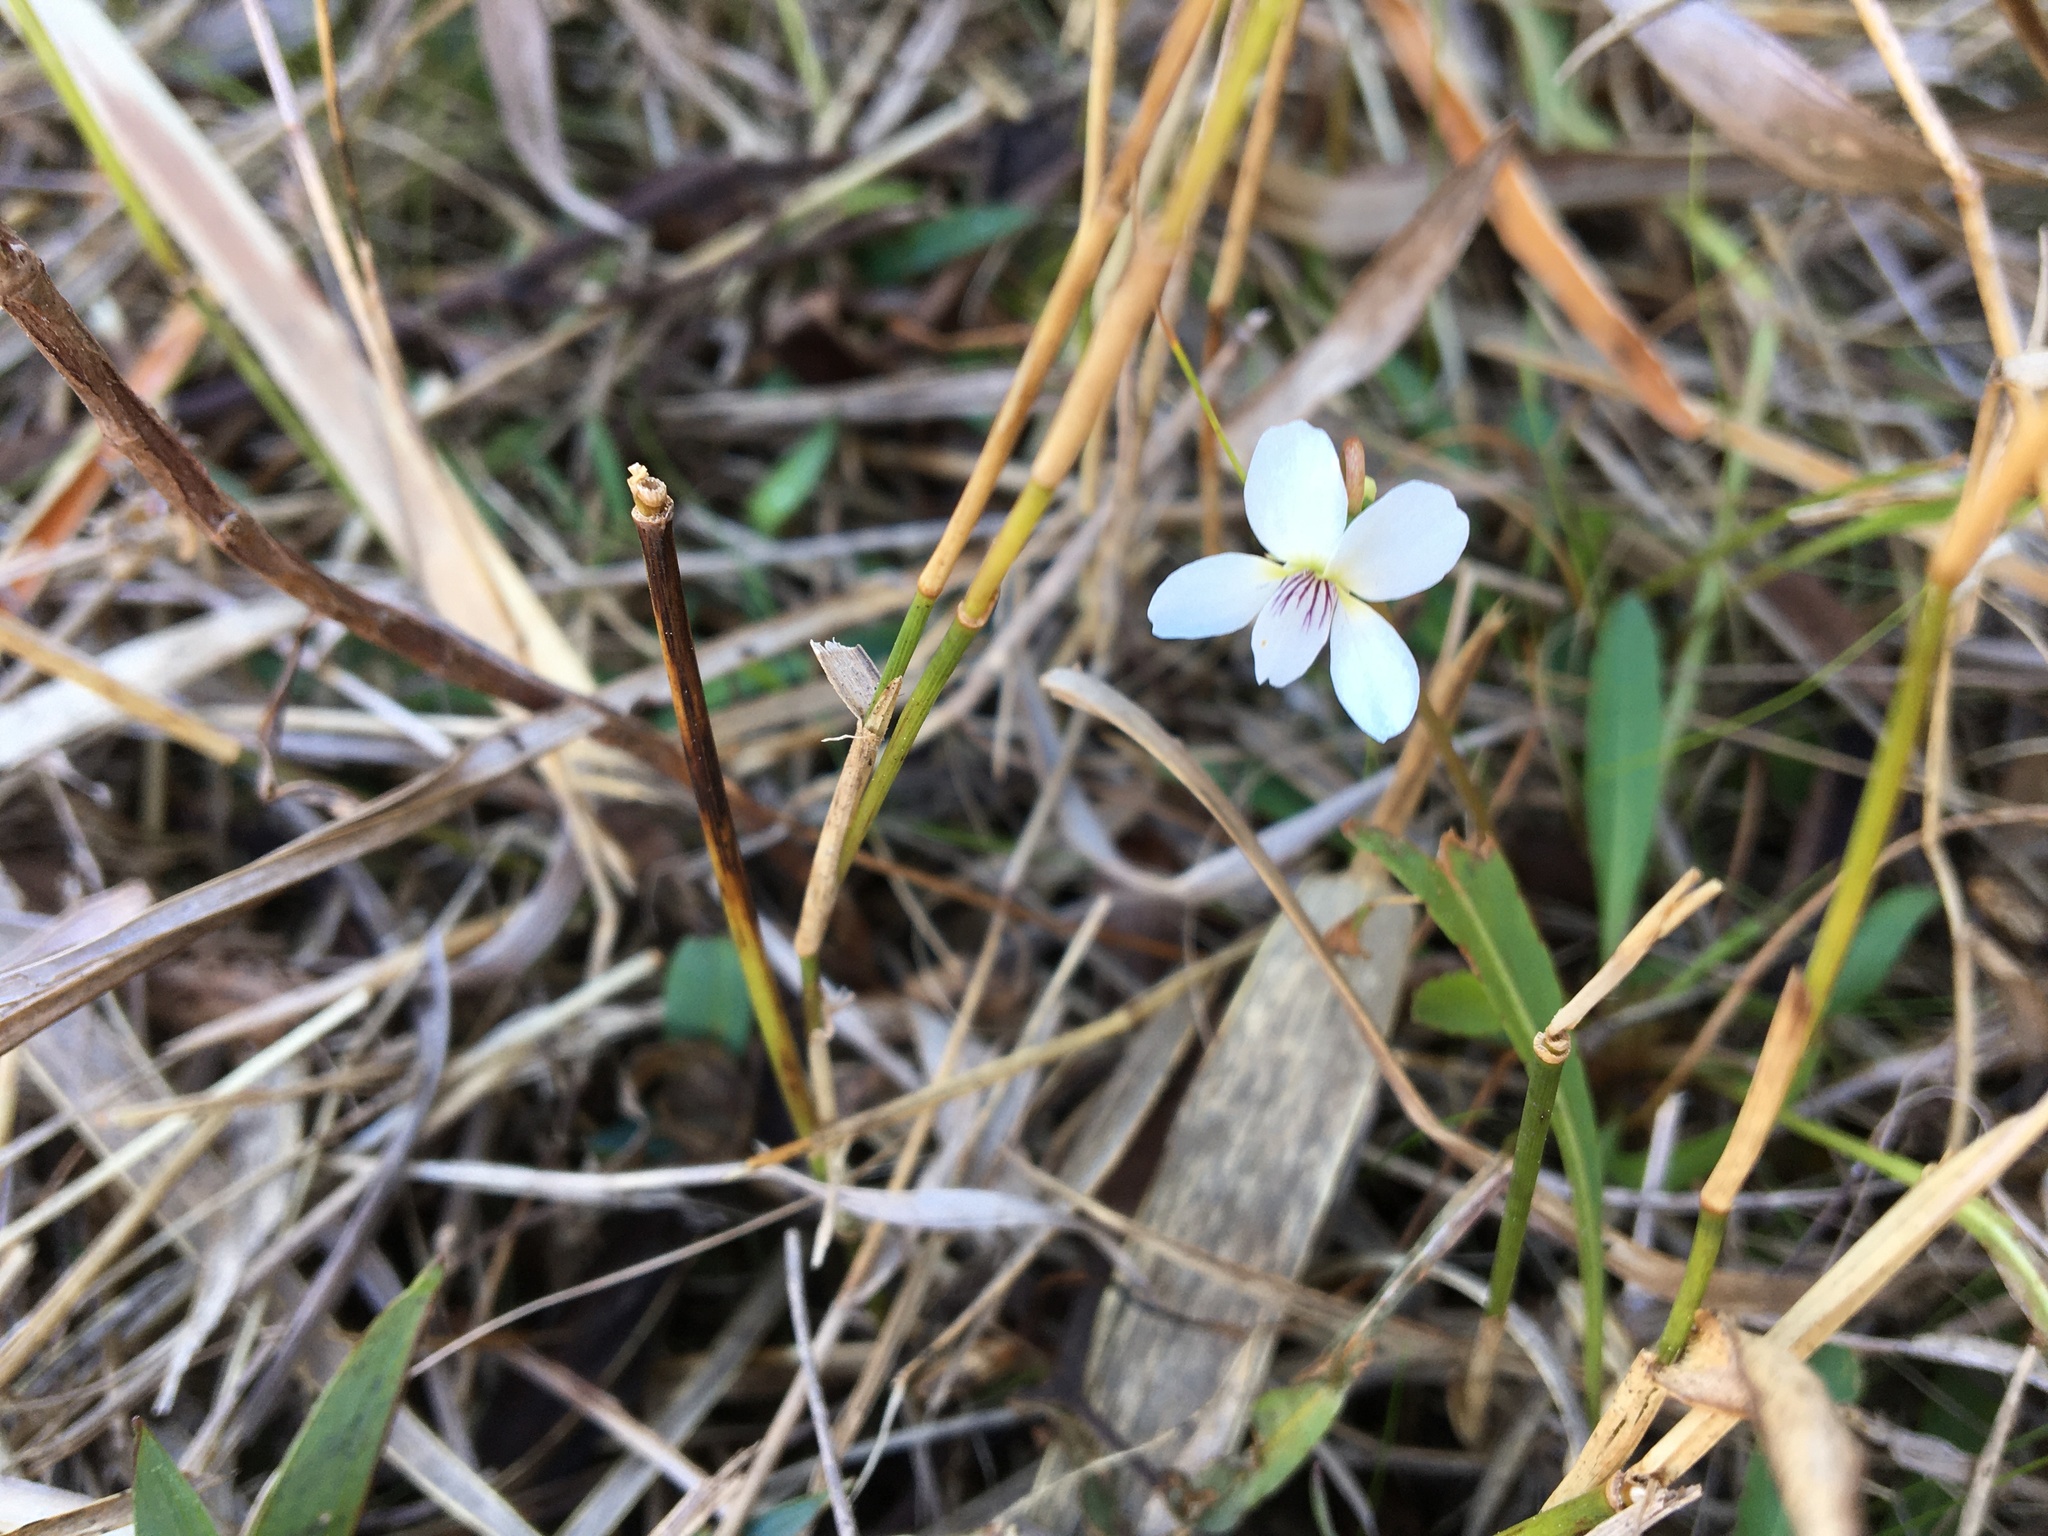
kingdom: Plantae
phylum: Tracheophyta
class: Magnoliopsida
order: Malpighiales
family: Violaceae
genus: Viola
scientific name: Viola lanceolata
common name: Bog white violet
